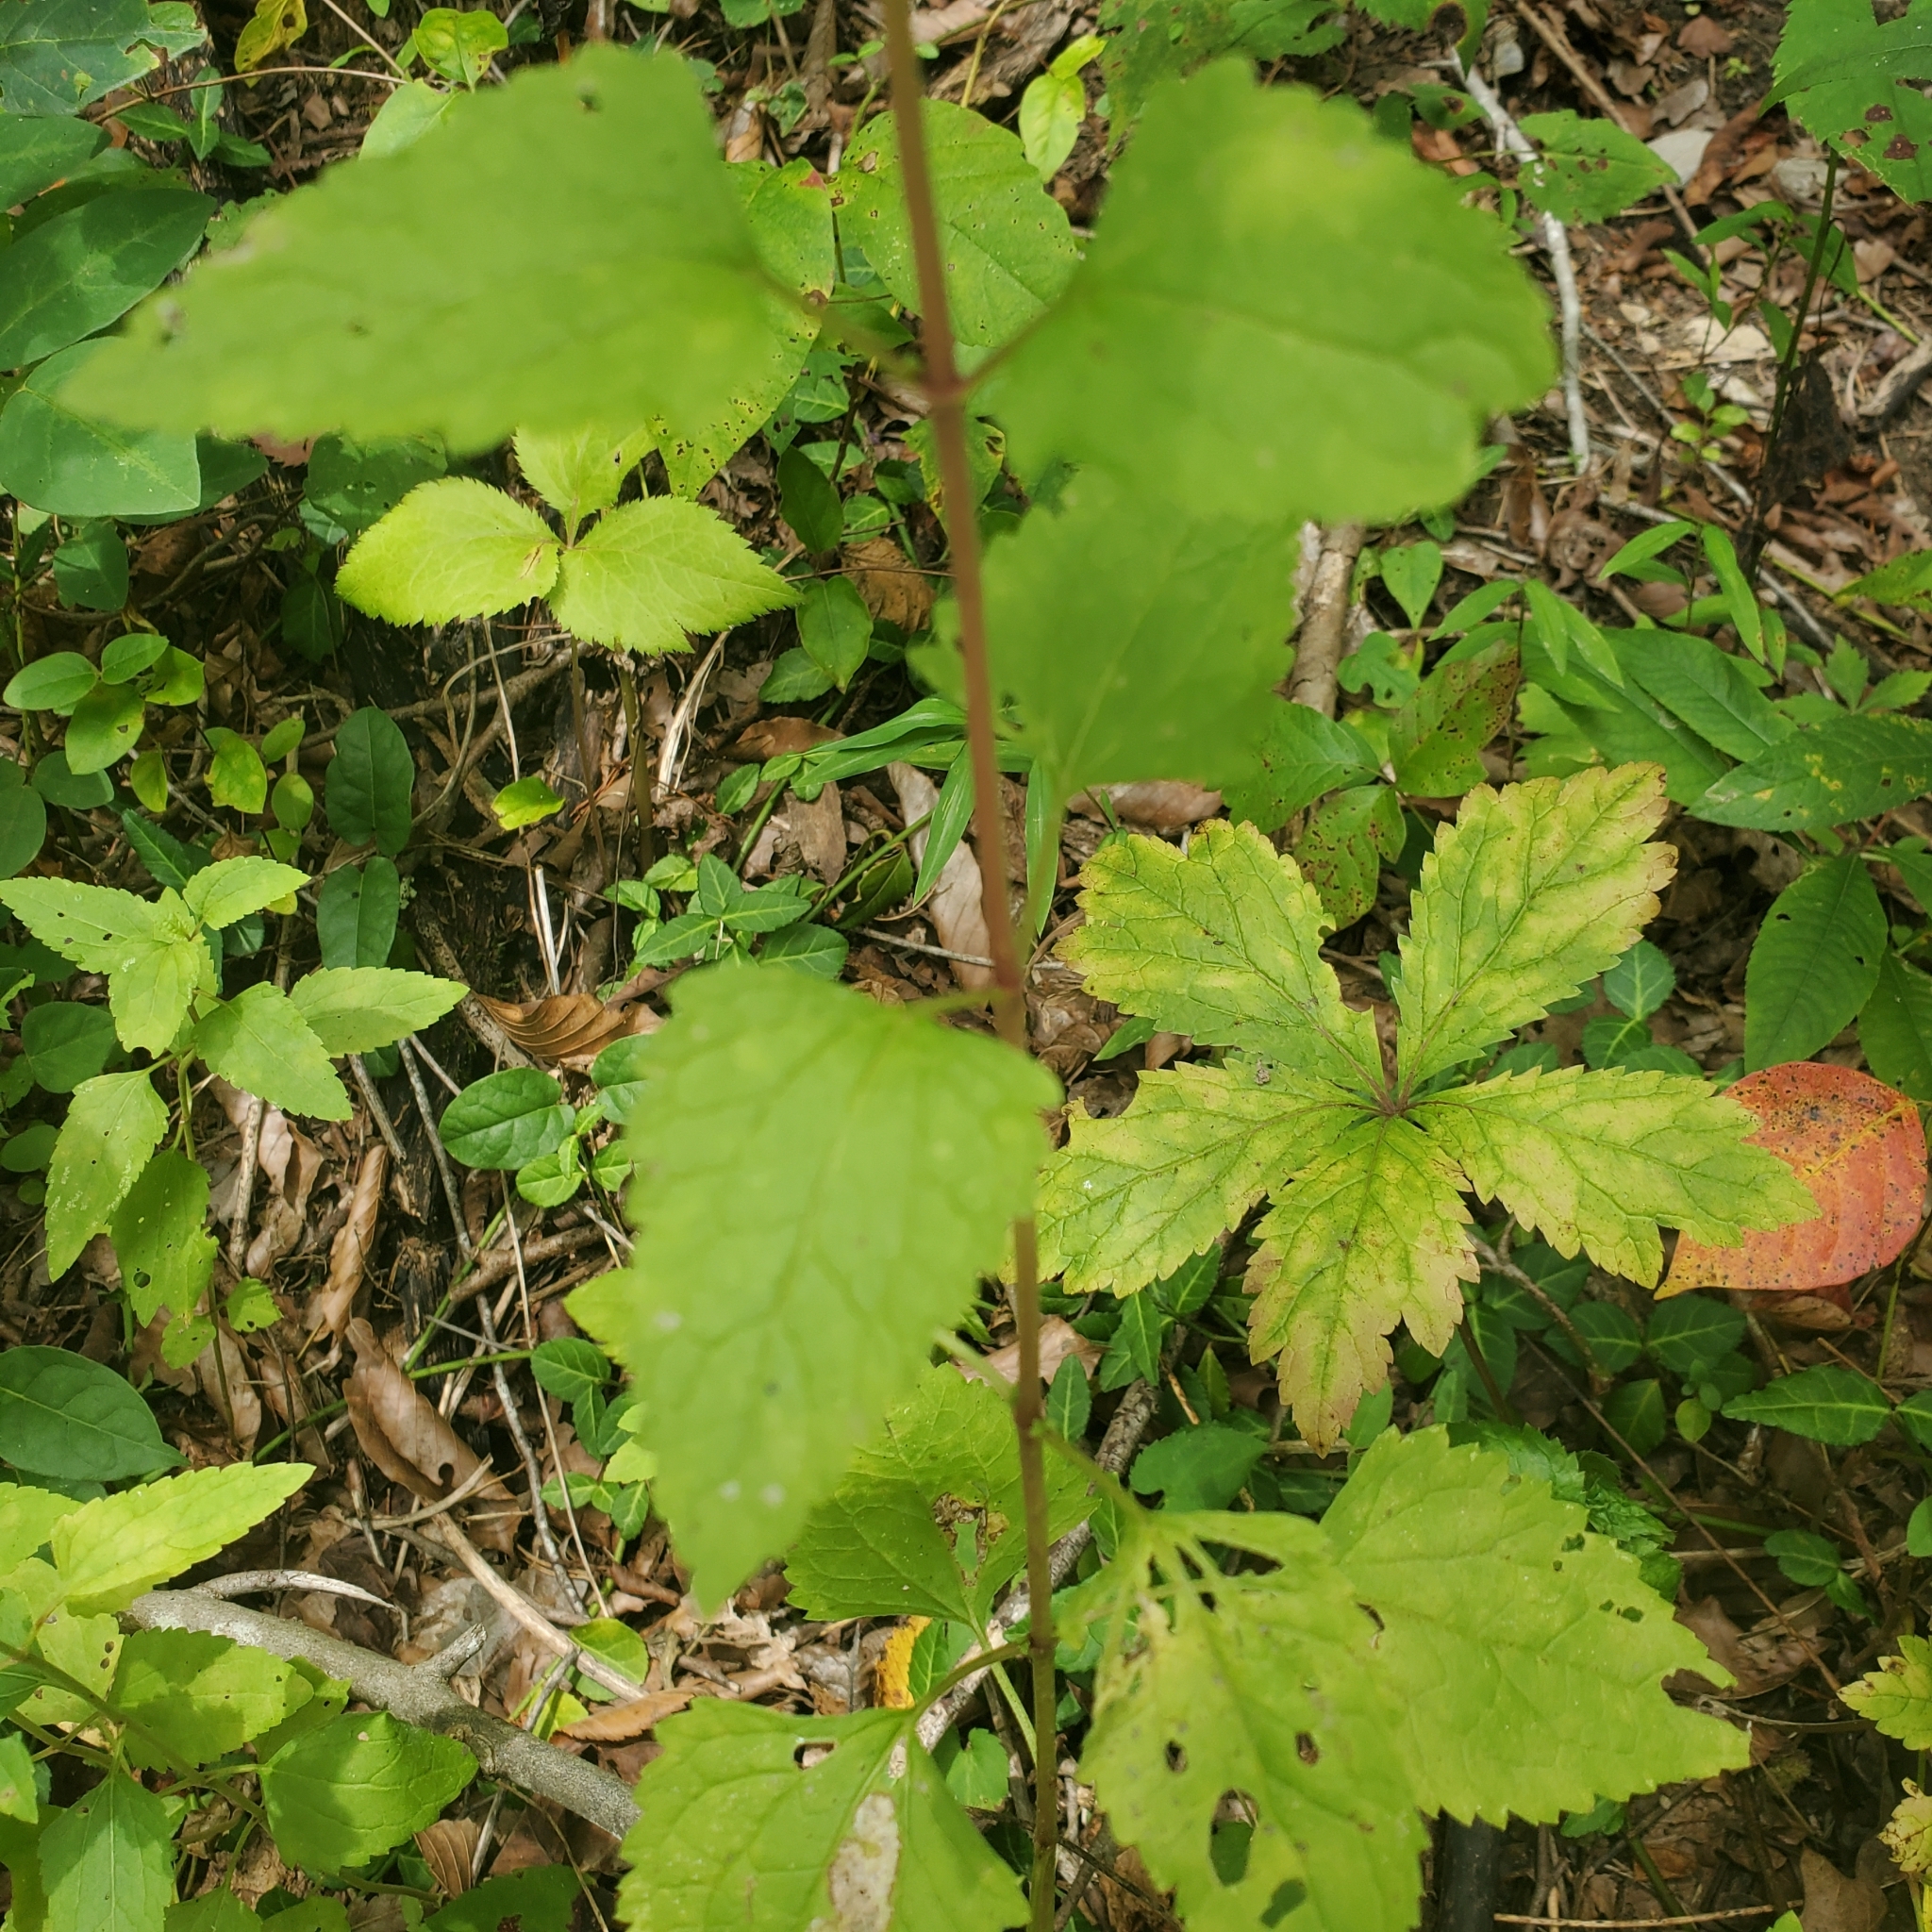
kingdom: Plantae
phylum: Tracheophyta
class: Magnoliopsida
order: Asterales
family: Asteraceae
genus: Conoclinium
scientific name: Conoclinium coelestinum
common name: Blue mistflower
